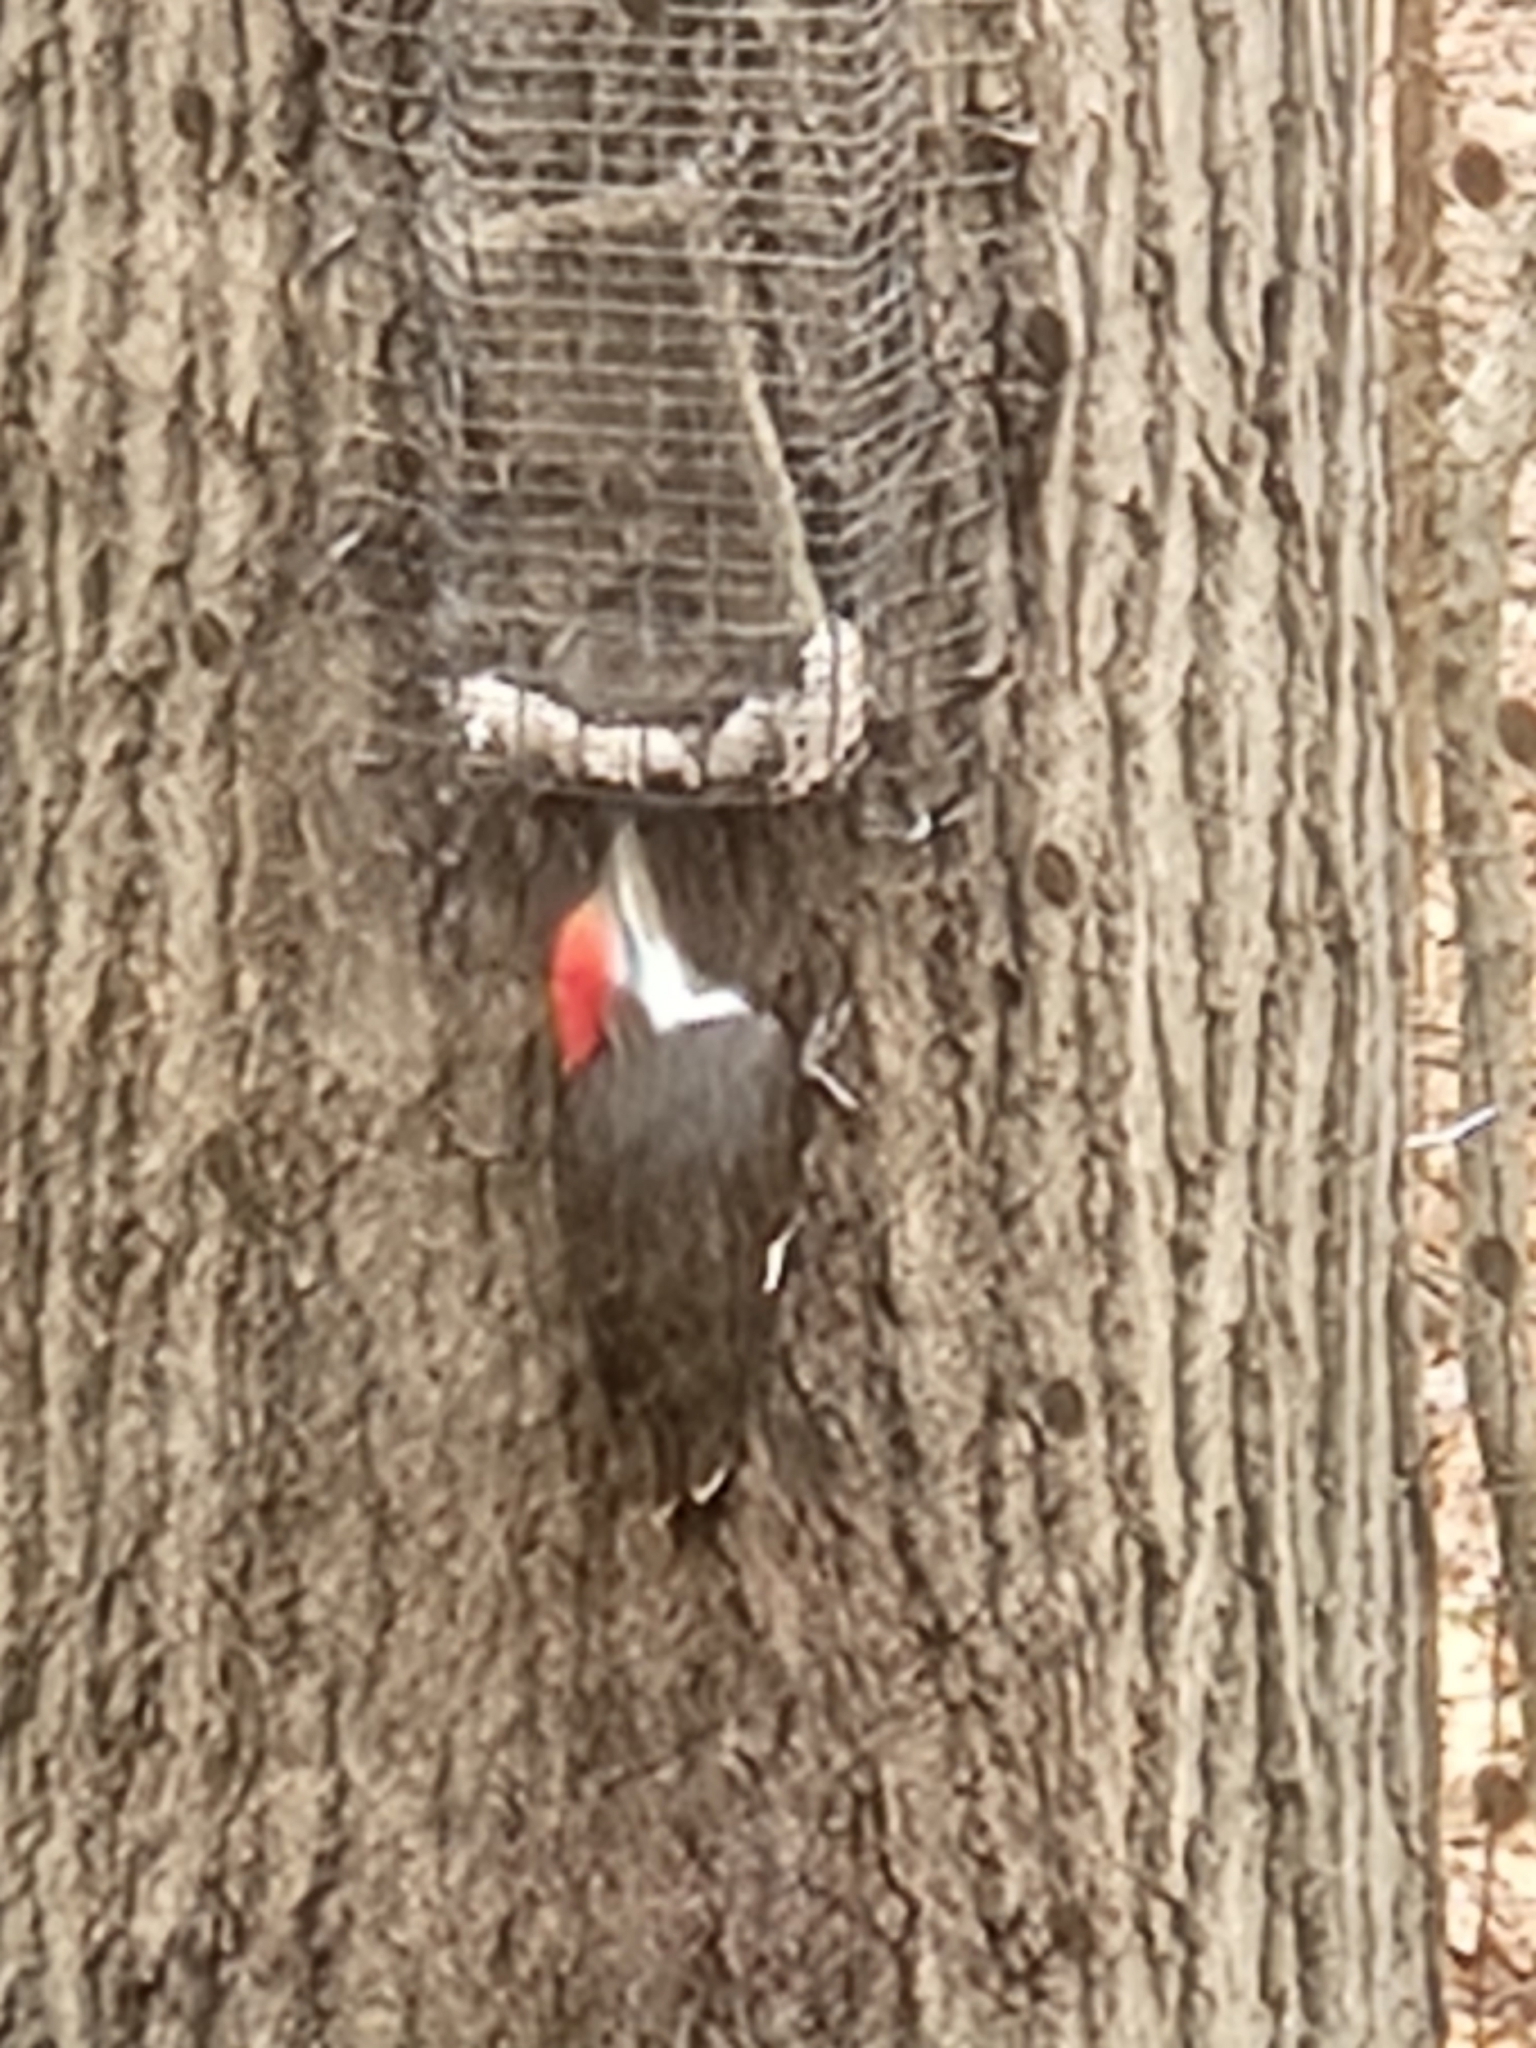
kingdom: Animalia
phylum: Chordata
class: Aves
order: Piciformes
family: Picidae
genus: Dryocopus
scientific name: Dryocopus pileatus
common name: Pileated woodpecker
